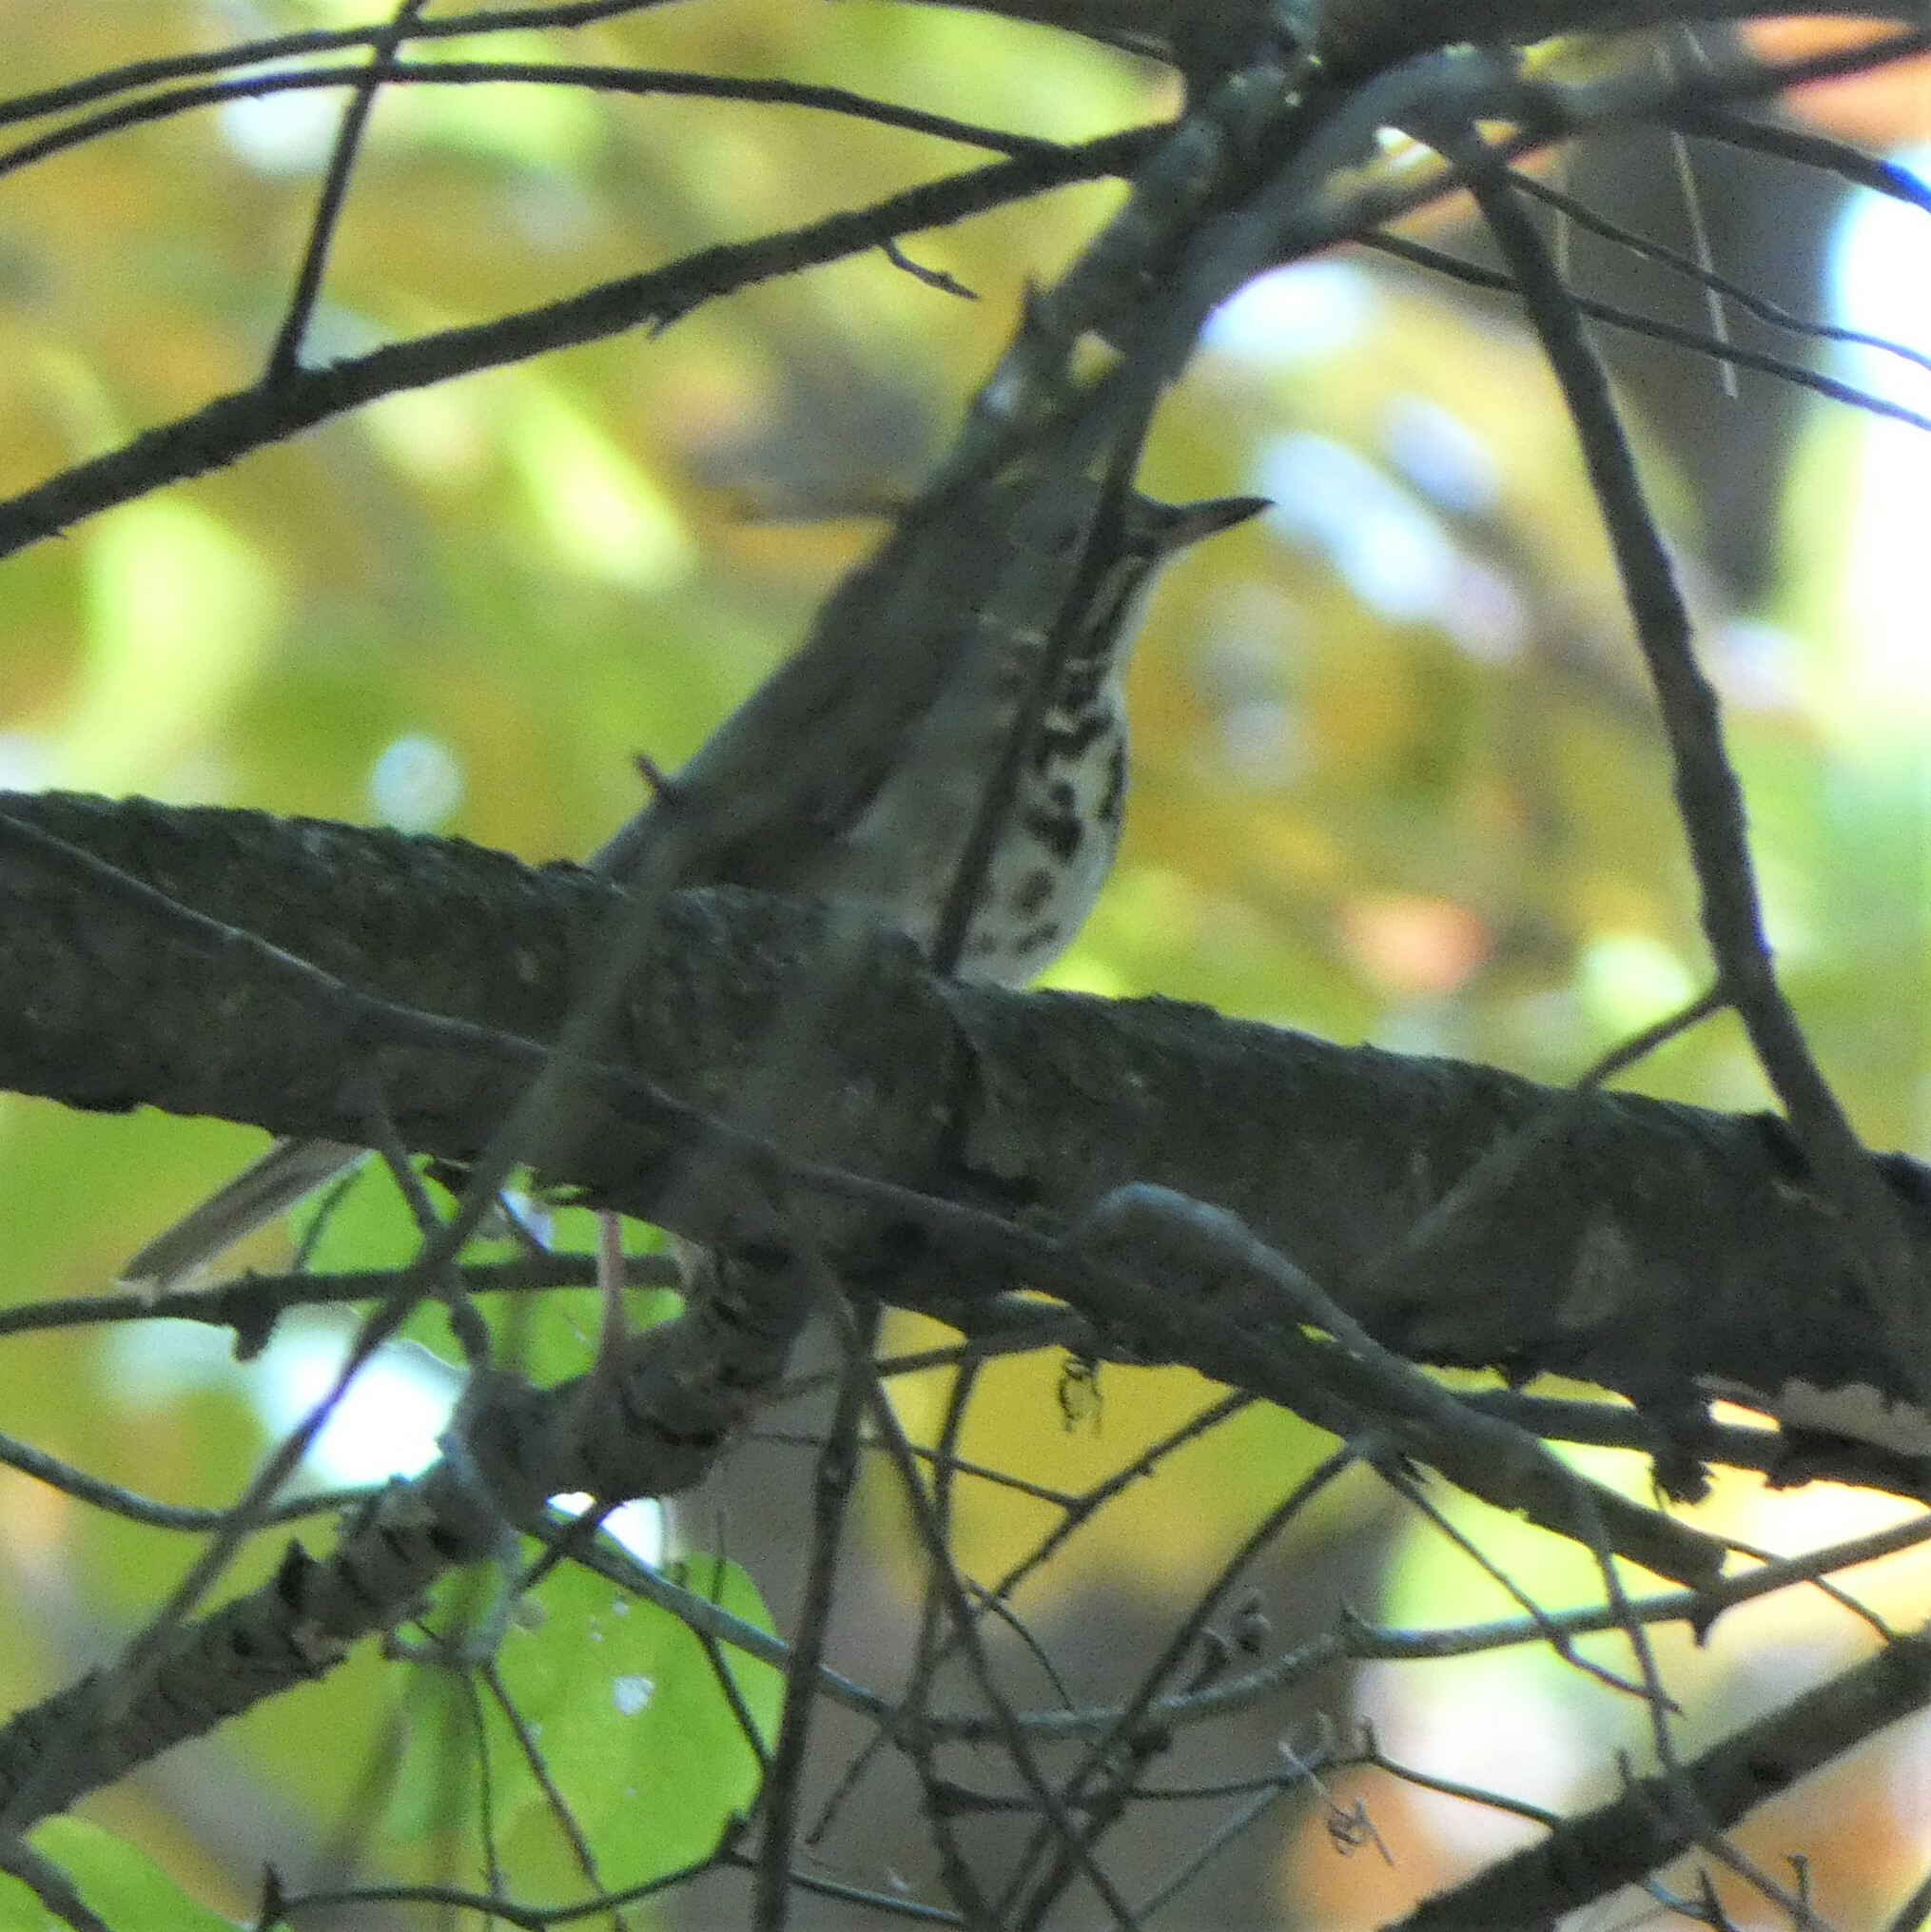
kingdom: Animalia
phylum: Chordata
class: Aves
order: Passeriformes
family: Turdidae
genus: Catharus
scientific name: Catharus guttatus
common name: Hermit thrush
